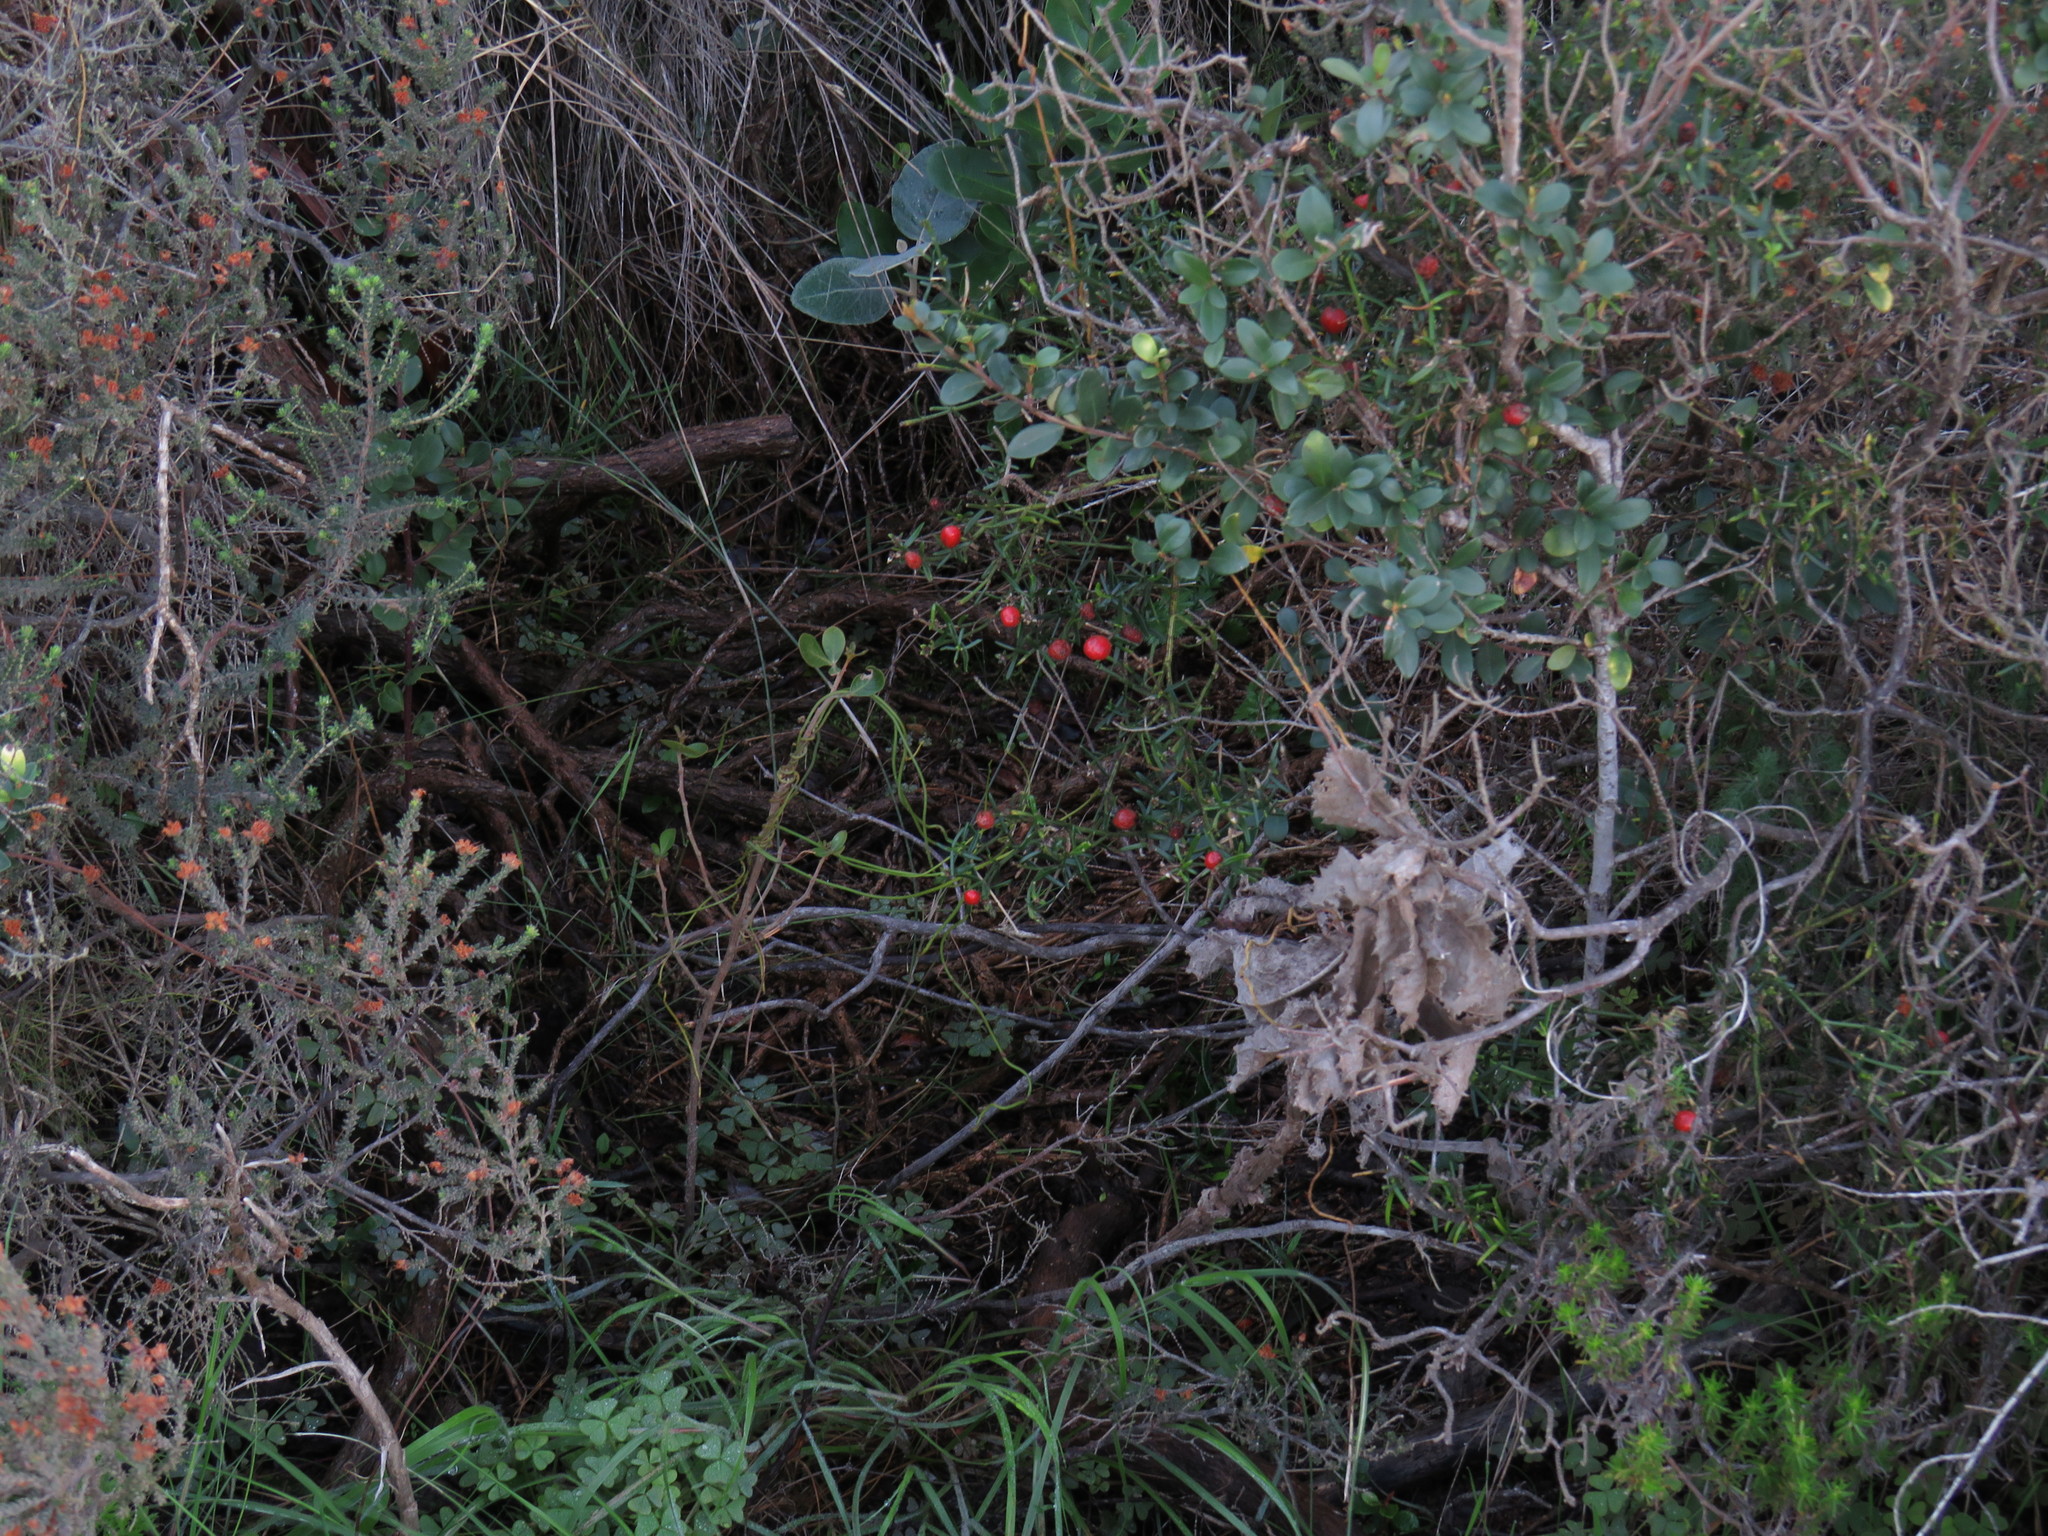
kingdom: Plantae
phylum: Tracheophyta
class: Magnoliopsida
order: Gentianales
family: Gentianaceae
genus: Chironia
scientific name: Chironia baccifera
